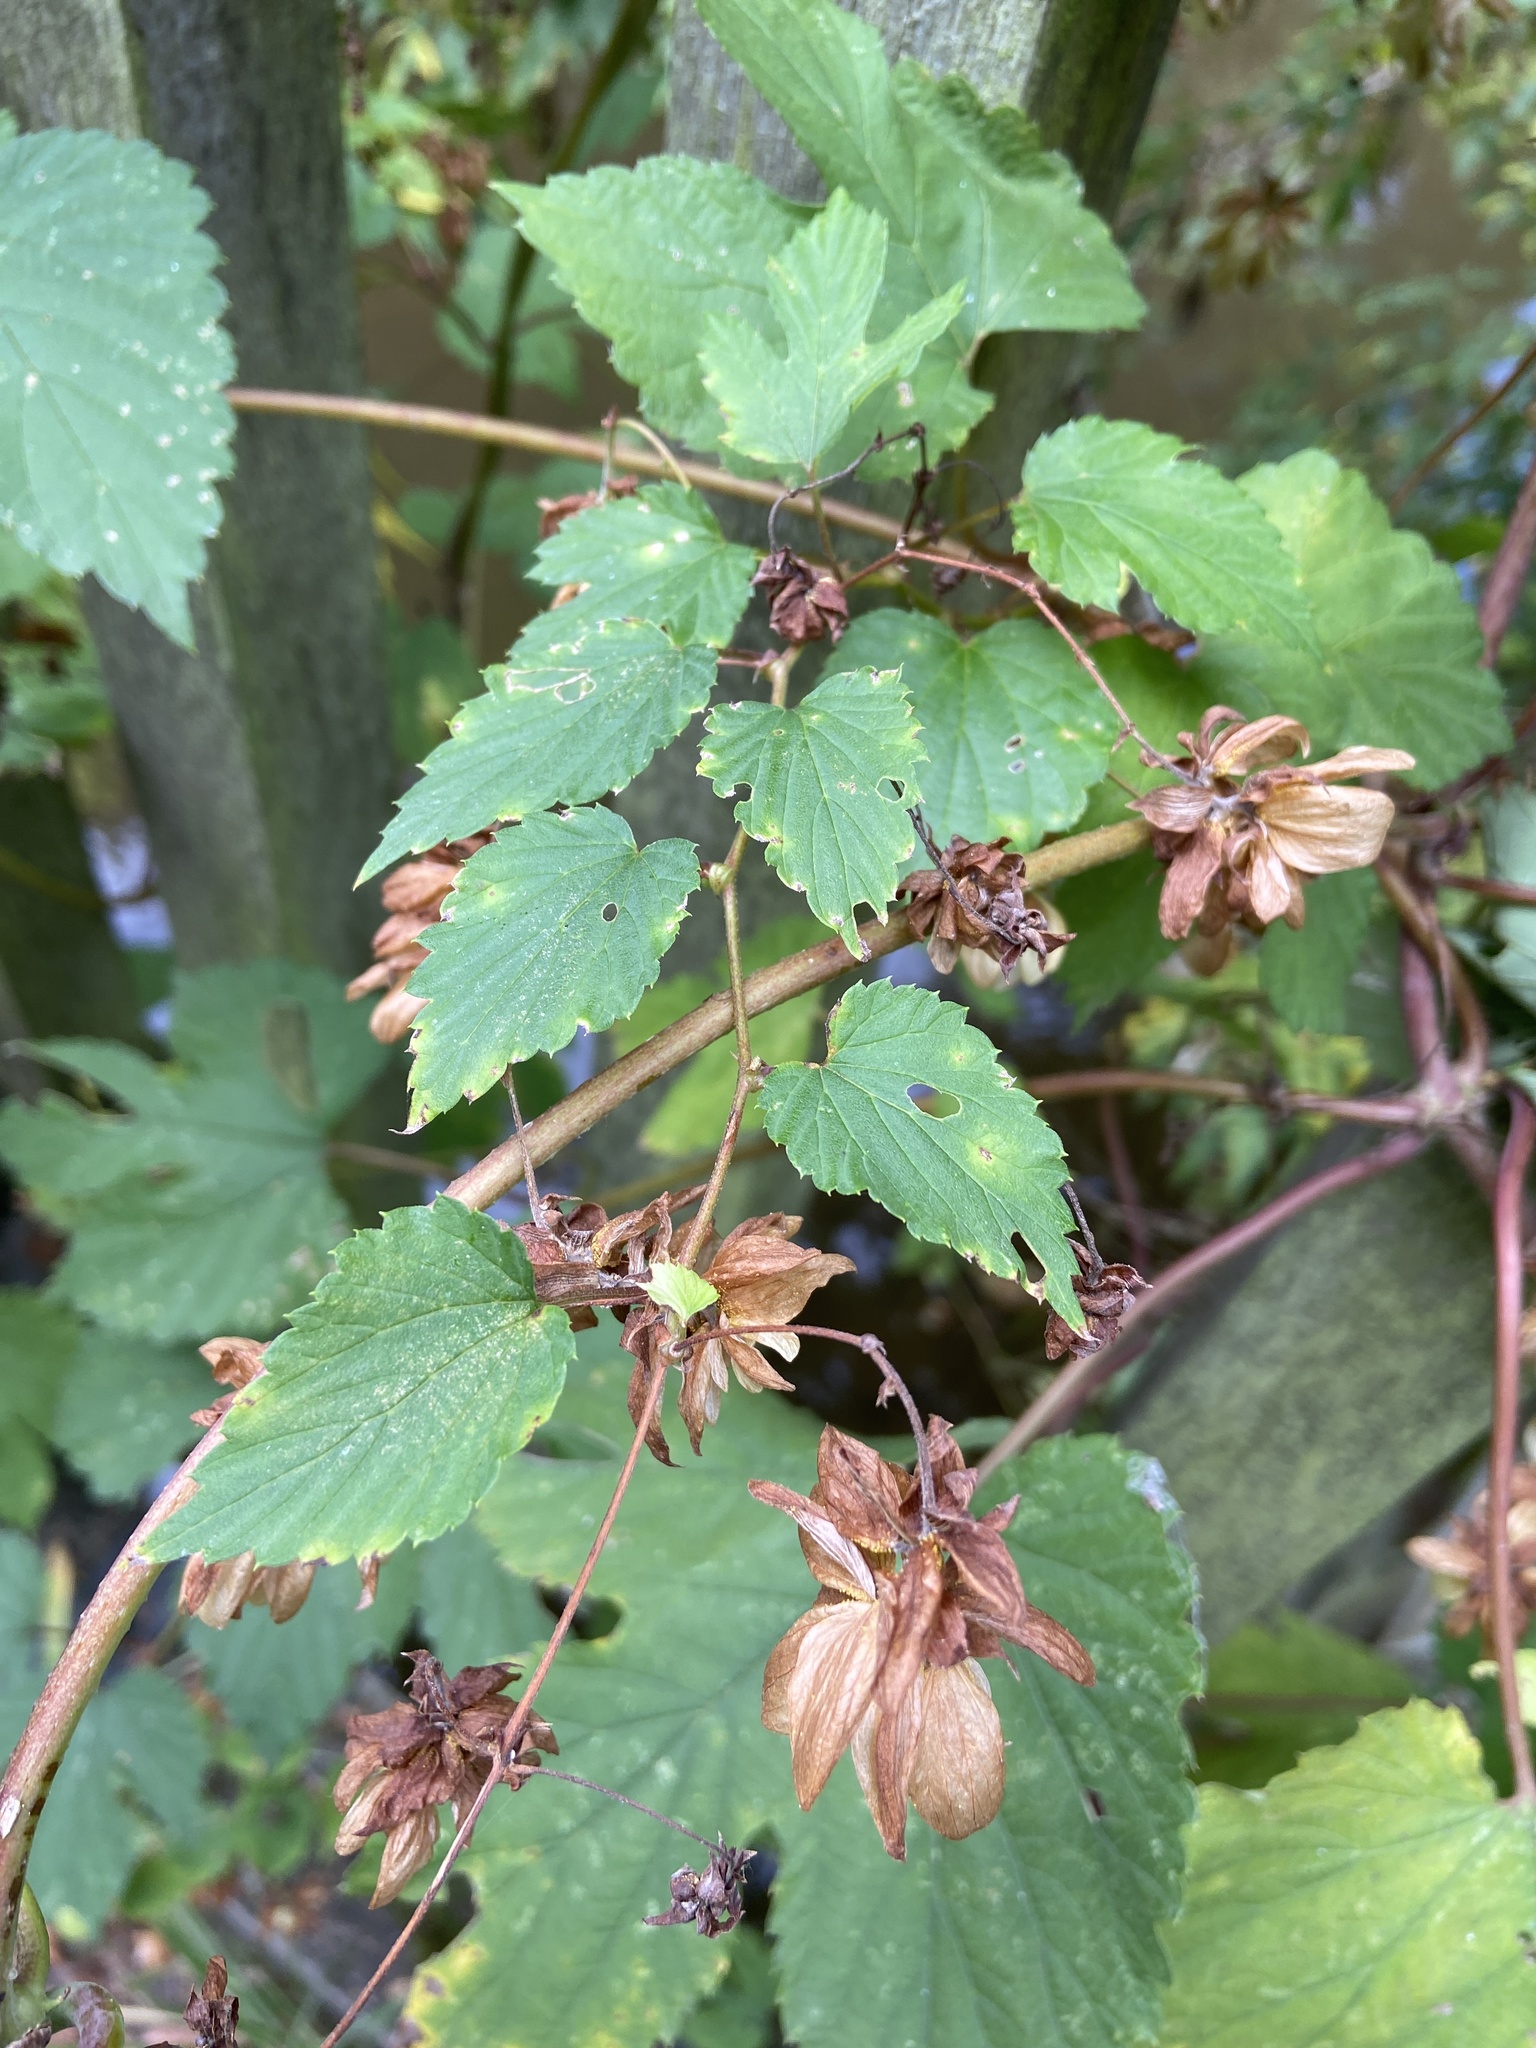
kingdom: Plantae
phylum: Tracheophyta
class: Magnoliopsida
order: Rosales
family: Cannabaceae
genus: Humulus
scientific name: Humulus lupulus
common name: Hop
